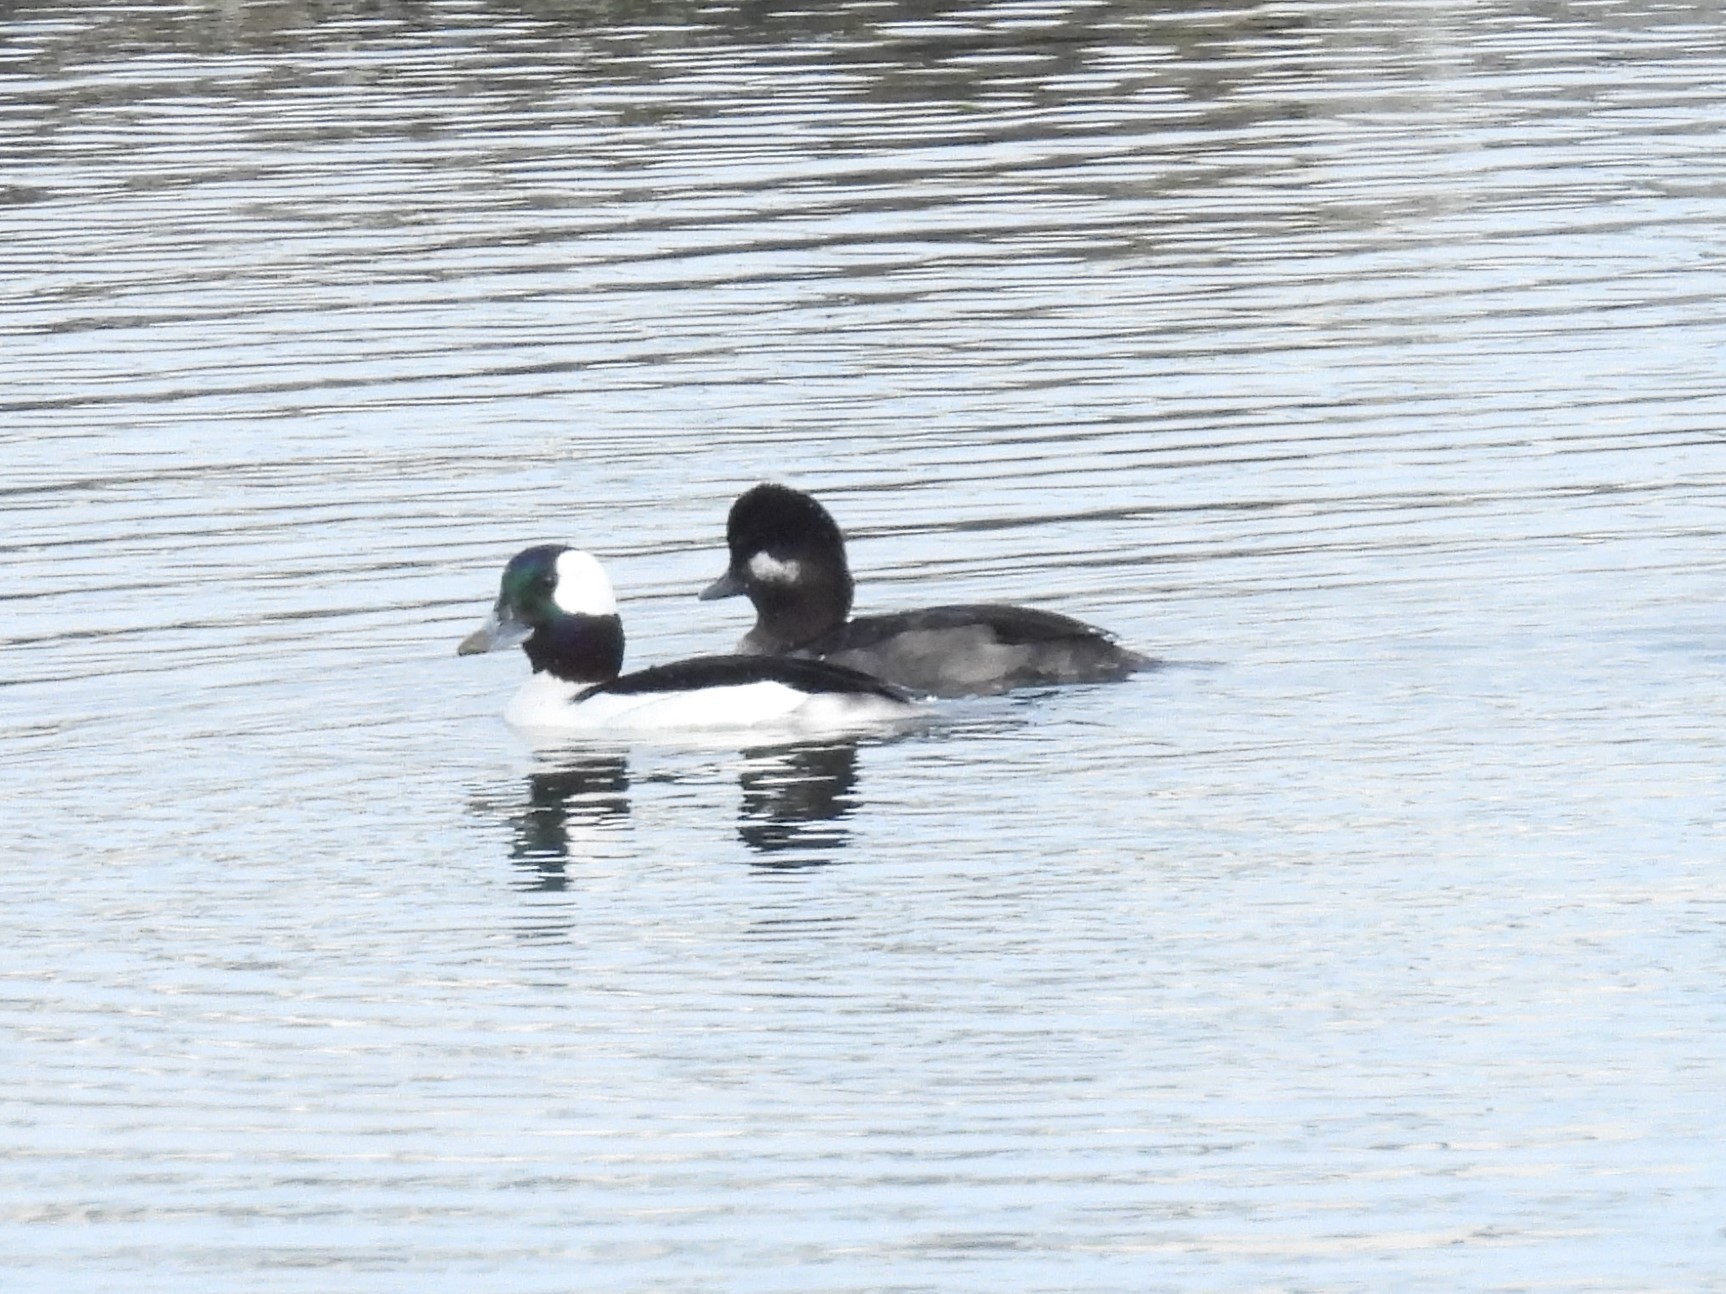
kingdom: Animalia
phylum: Chordata
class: Aves
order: Anseriformes
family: Anatidae
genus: Bucephala
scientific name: Bucephala albeola
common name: Bufflehead
